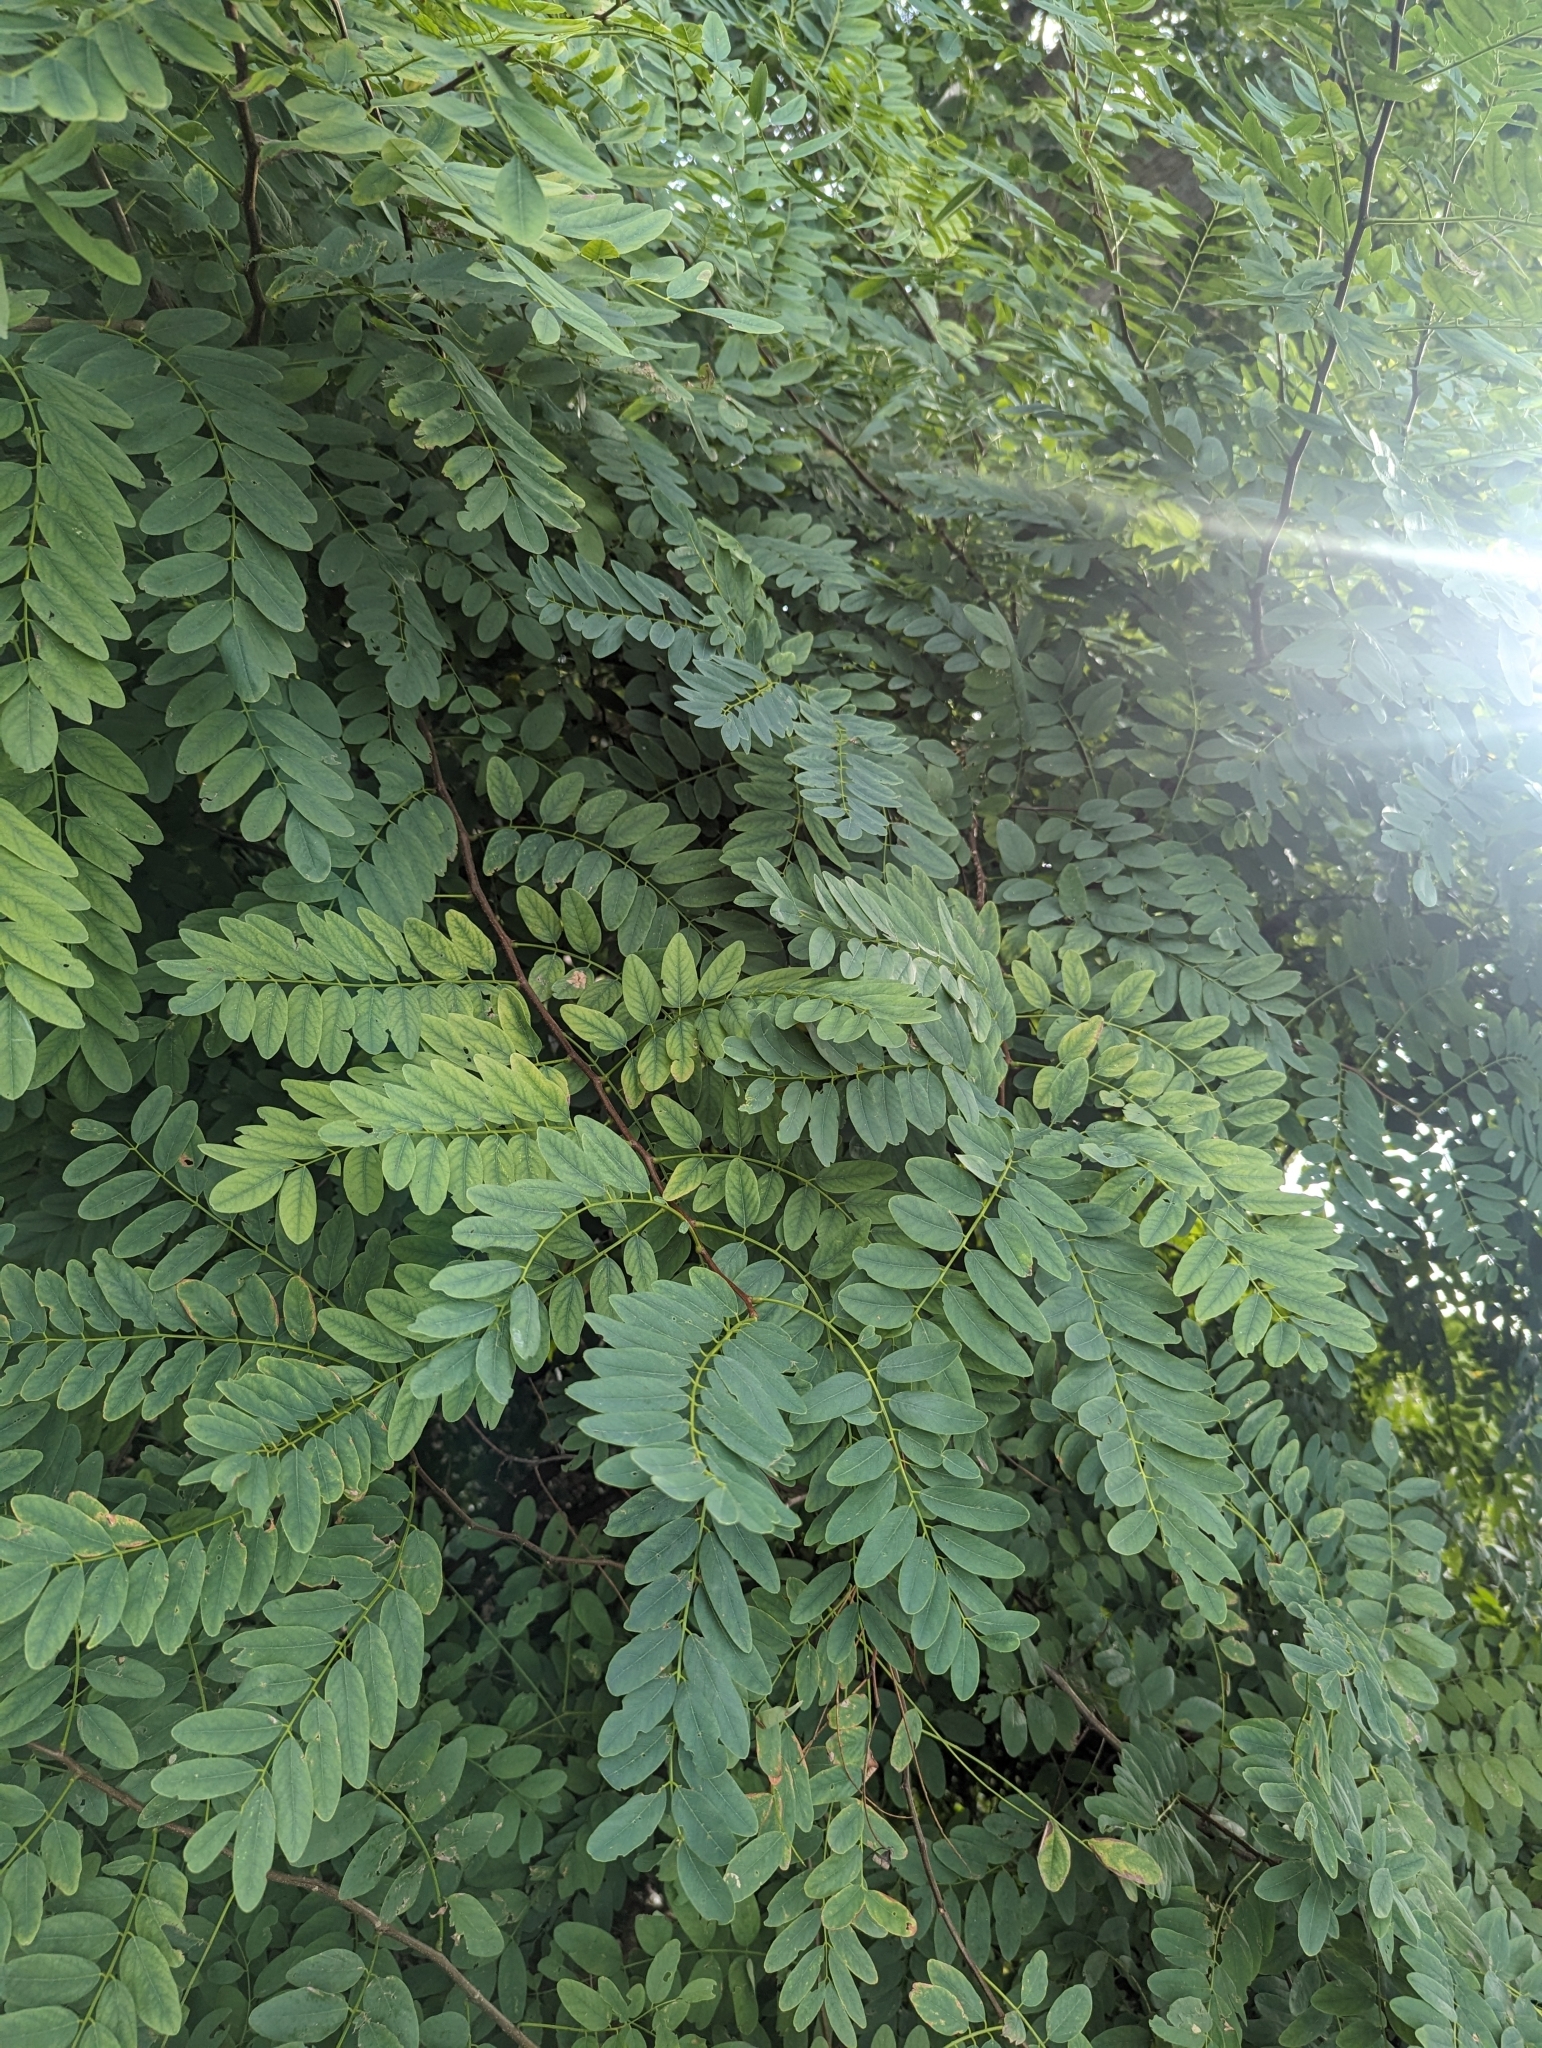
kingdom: Plantae
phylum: Tracheophyta
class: Magnoliopsida
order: Fabales
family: Fabaceae
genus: Robinia
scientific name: Robinia pseudoacacia
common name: Black locust
